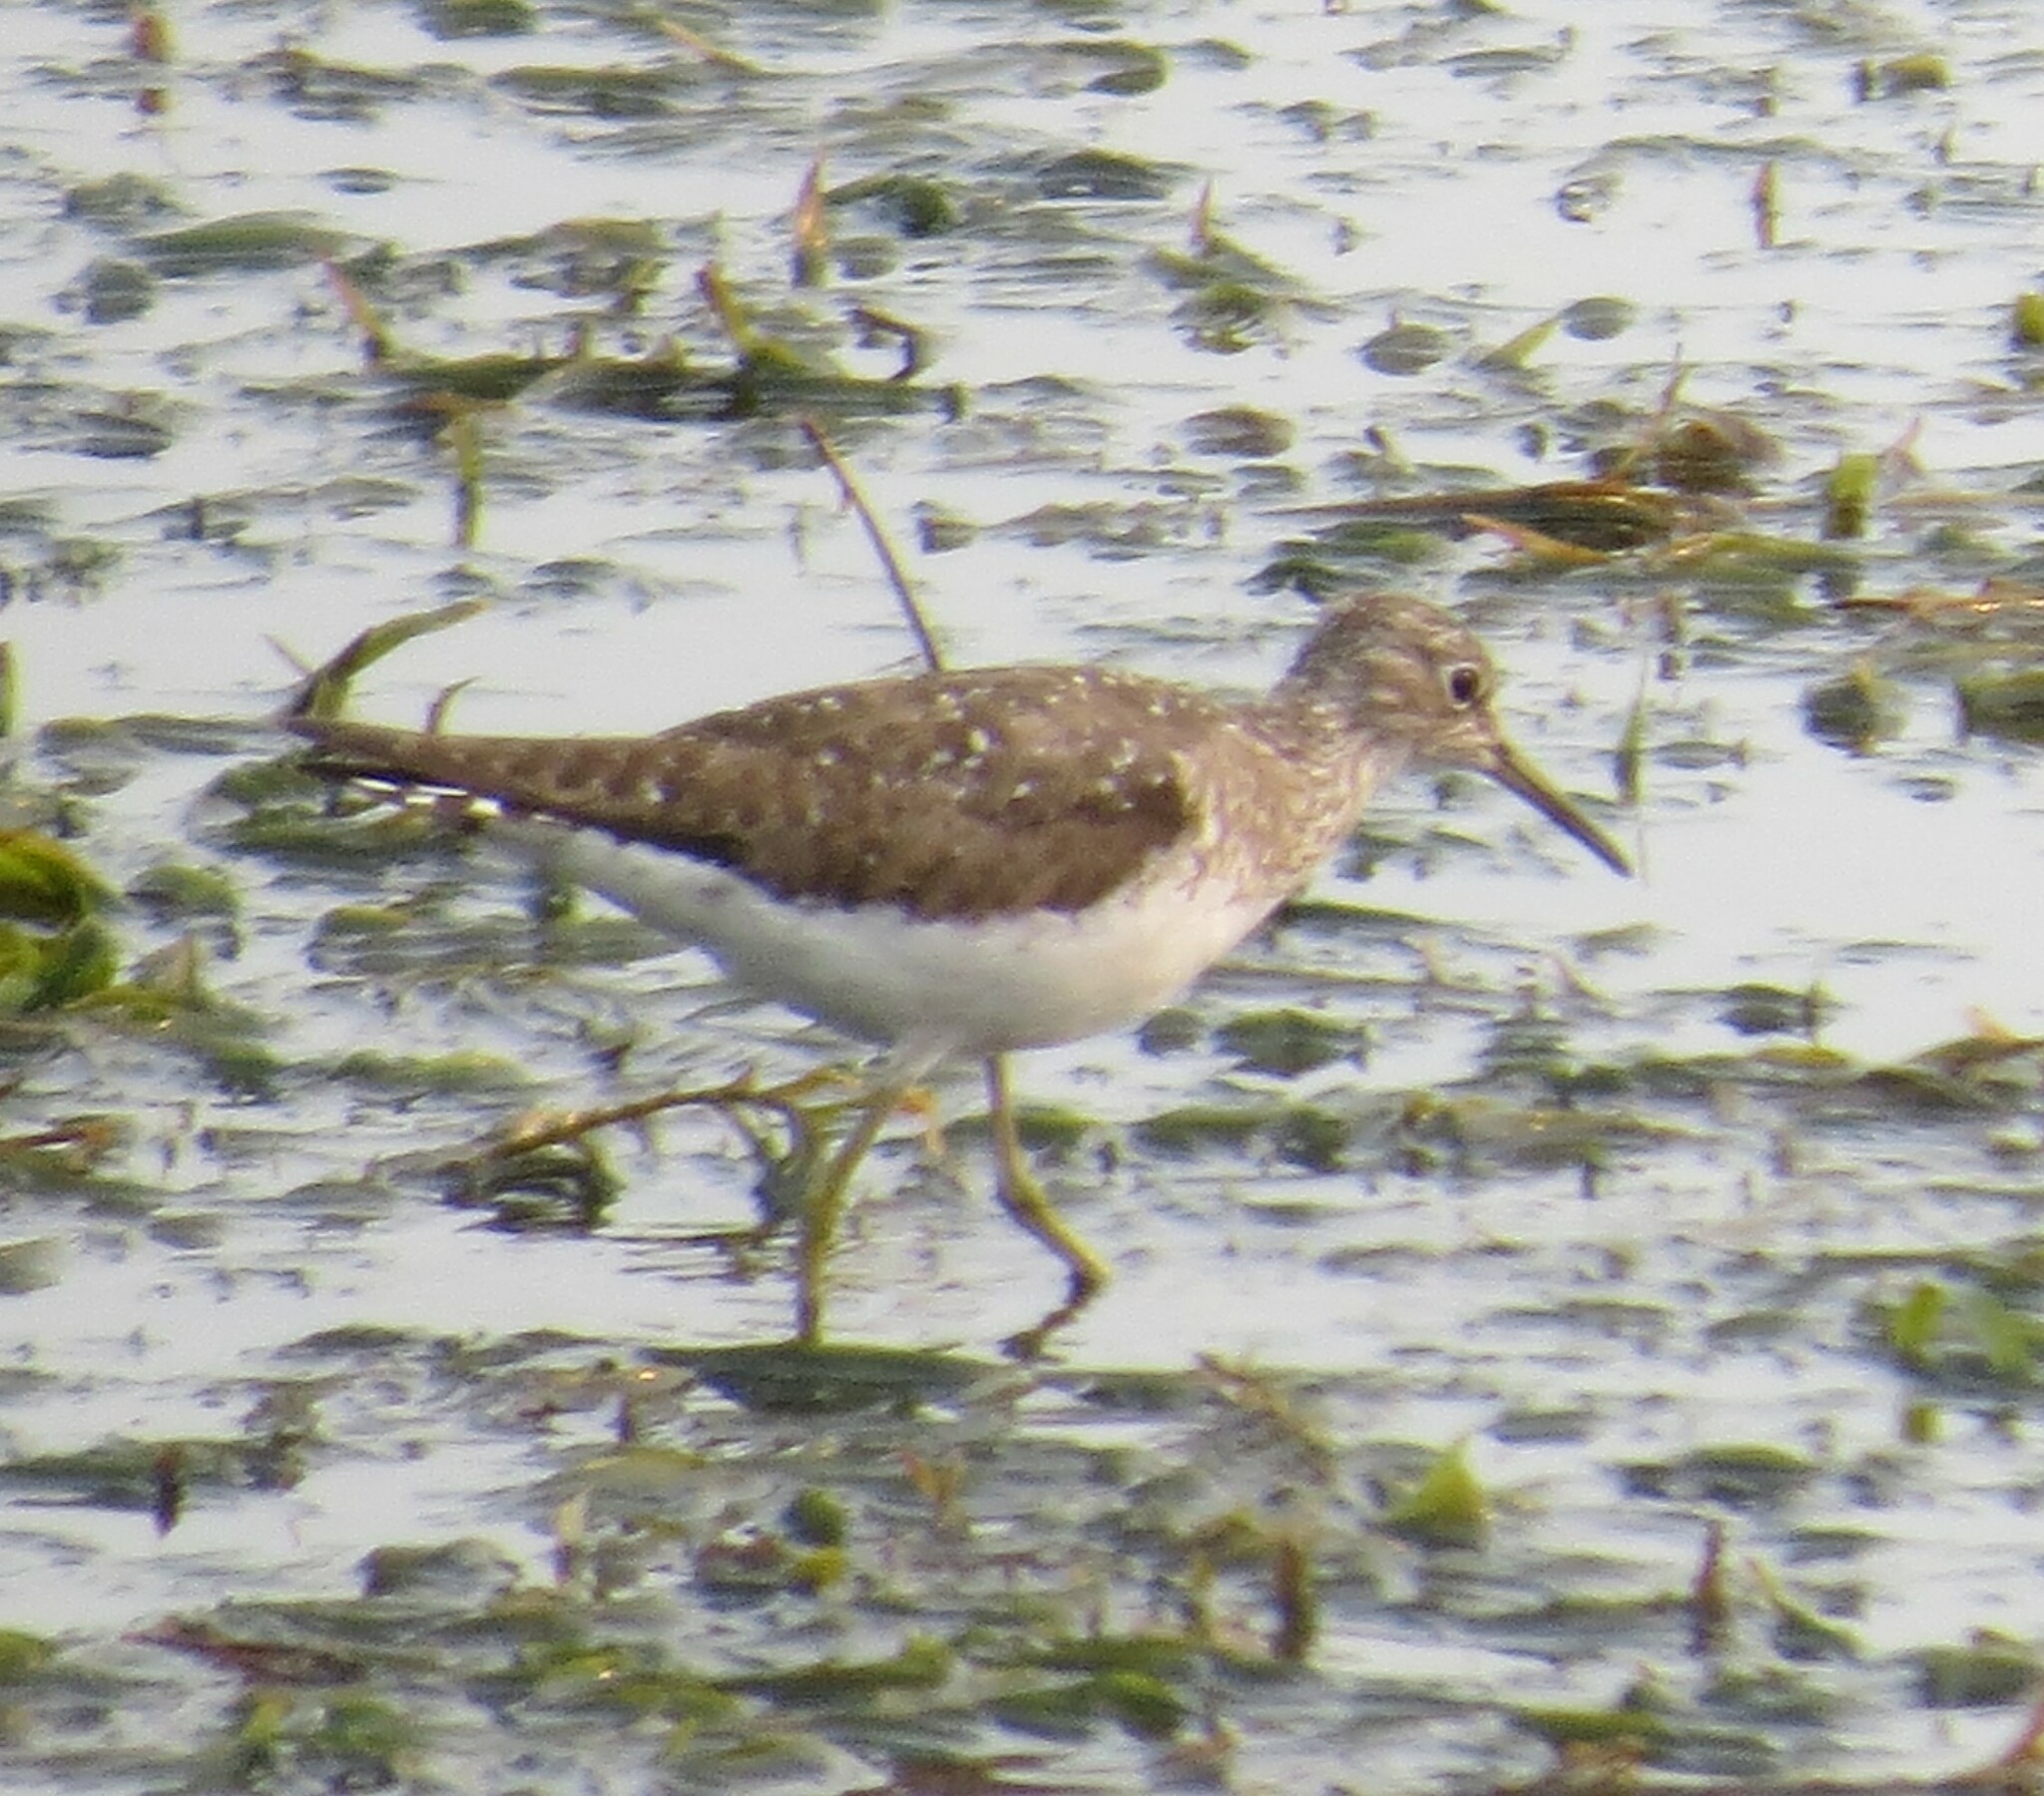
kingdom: Animalia
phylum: Chordata
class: Aves
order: Charadriiformes
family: Scolopacidae
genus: Tringa
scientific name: Tringa solitaria
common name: Solitary sandpiper
